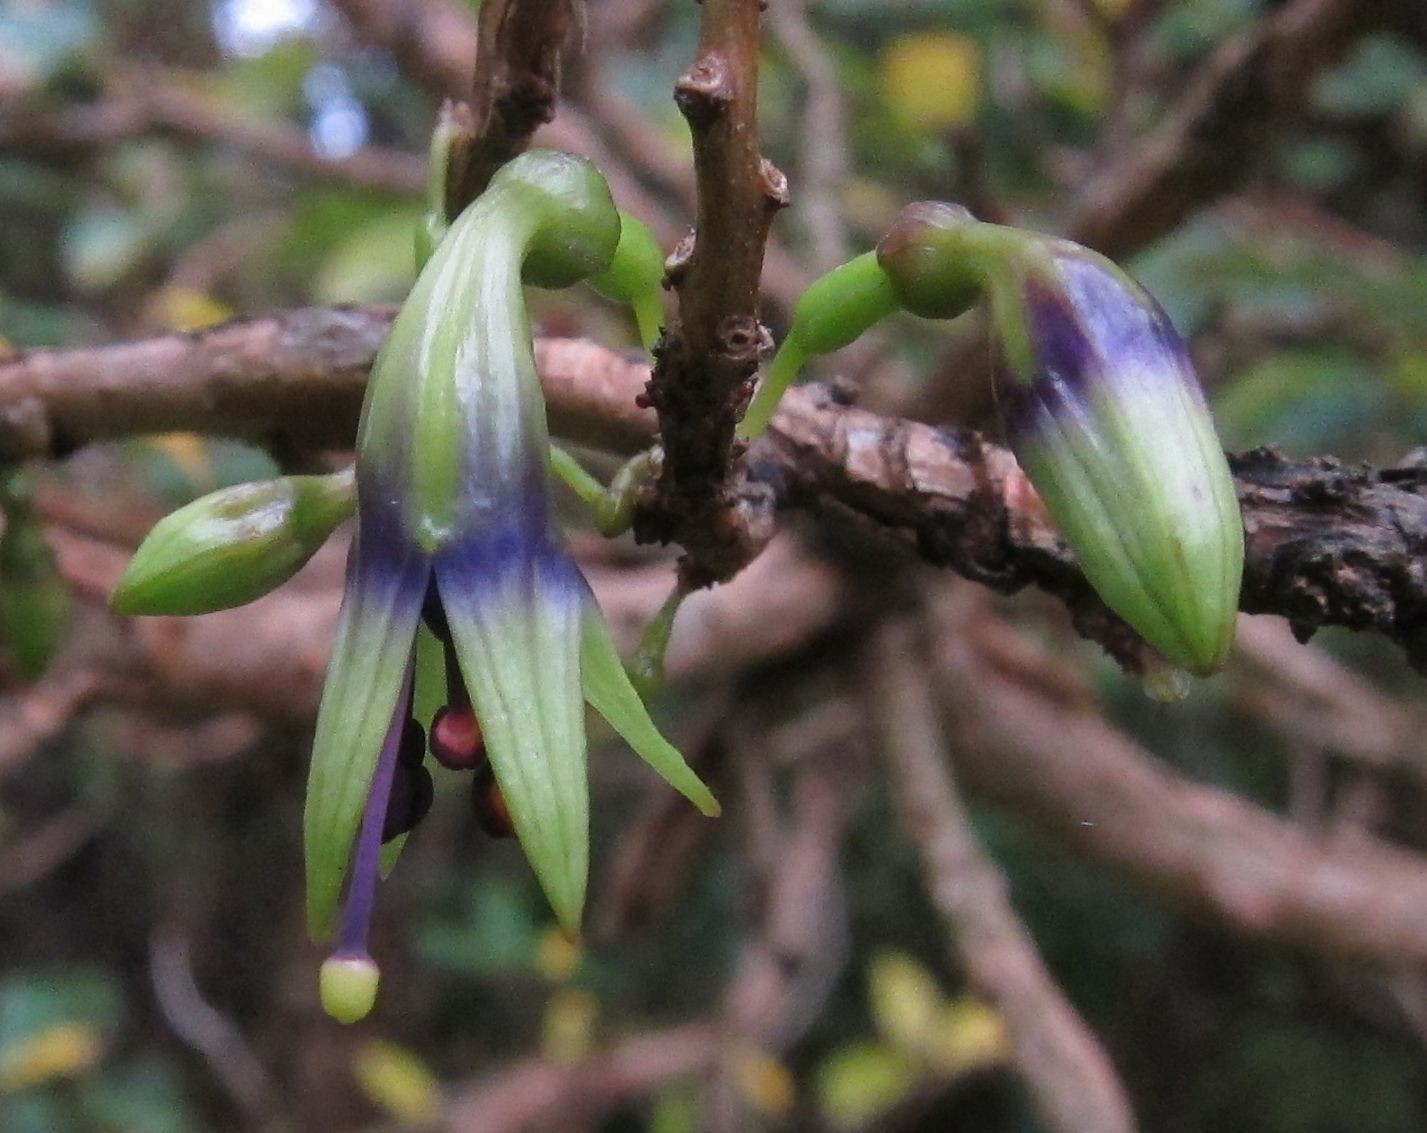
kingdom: Plantae
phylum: Tracheophyta
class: Magnoliopsida
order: Myrtales
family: Onagraceae
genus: Fuchsia
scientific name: Fuchsia excorticata
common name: Tree fuchsia
